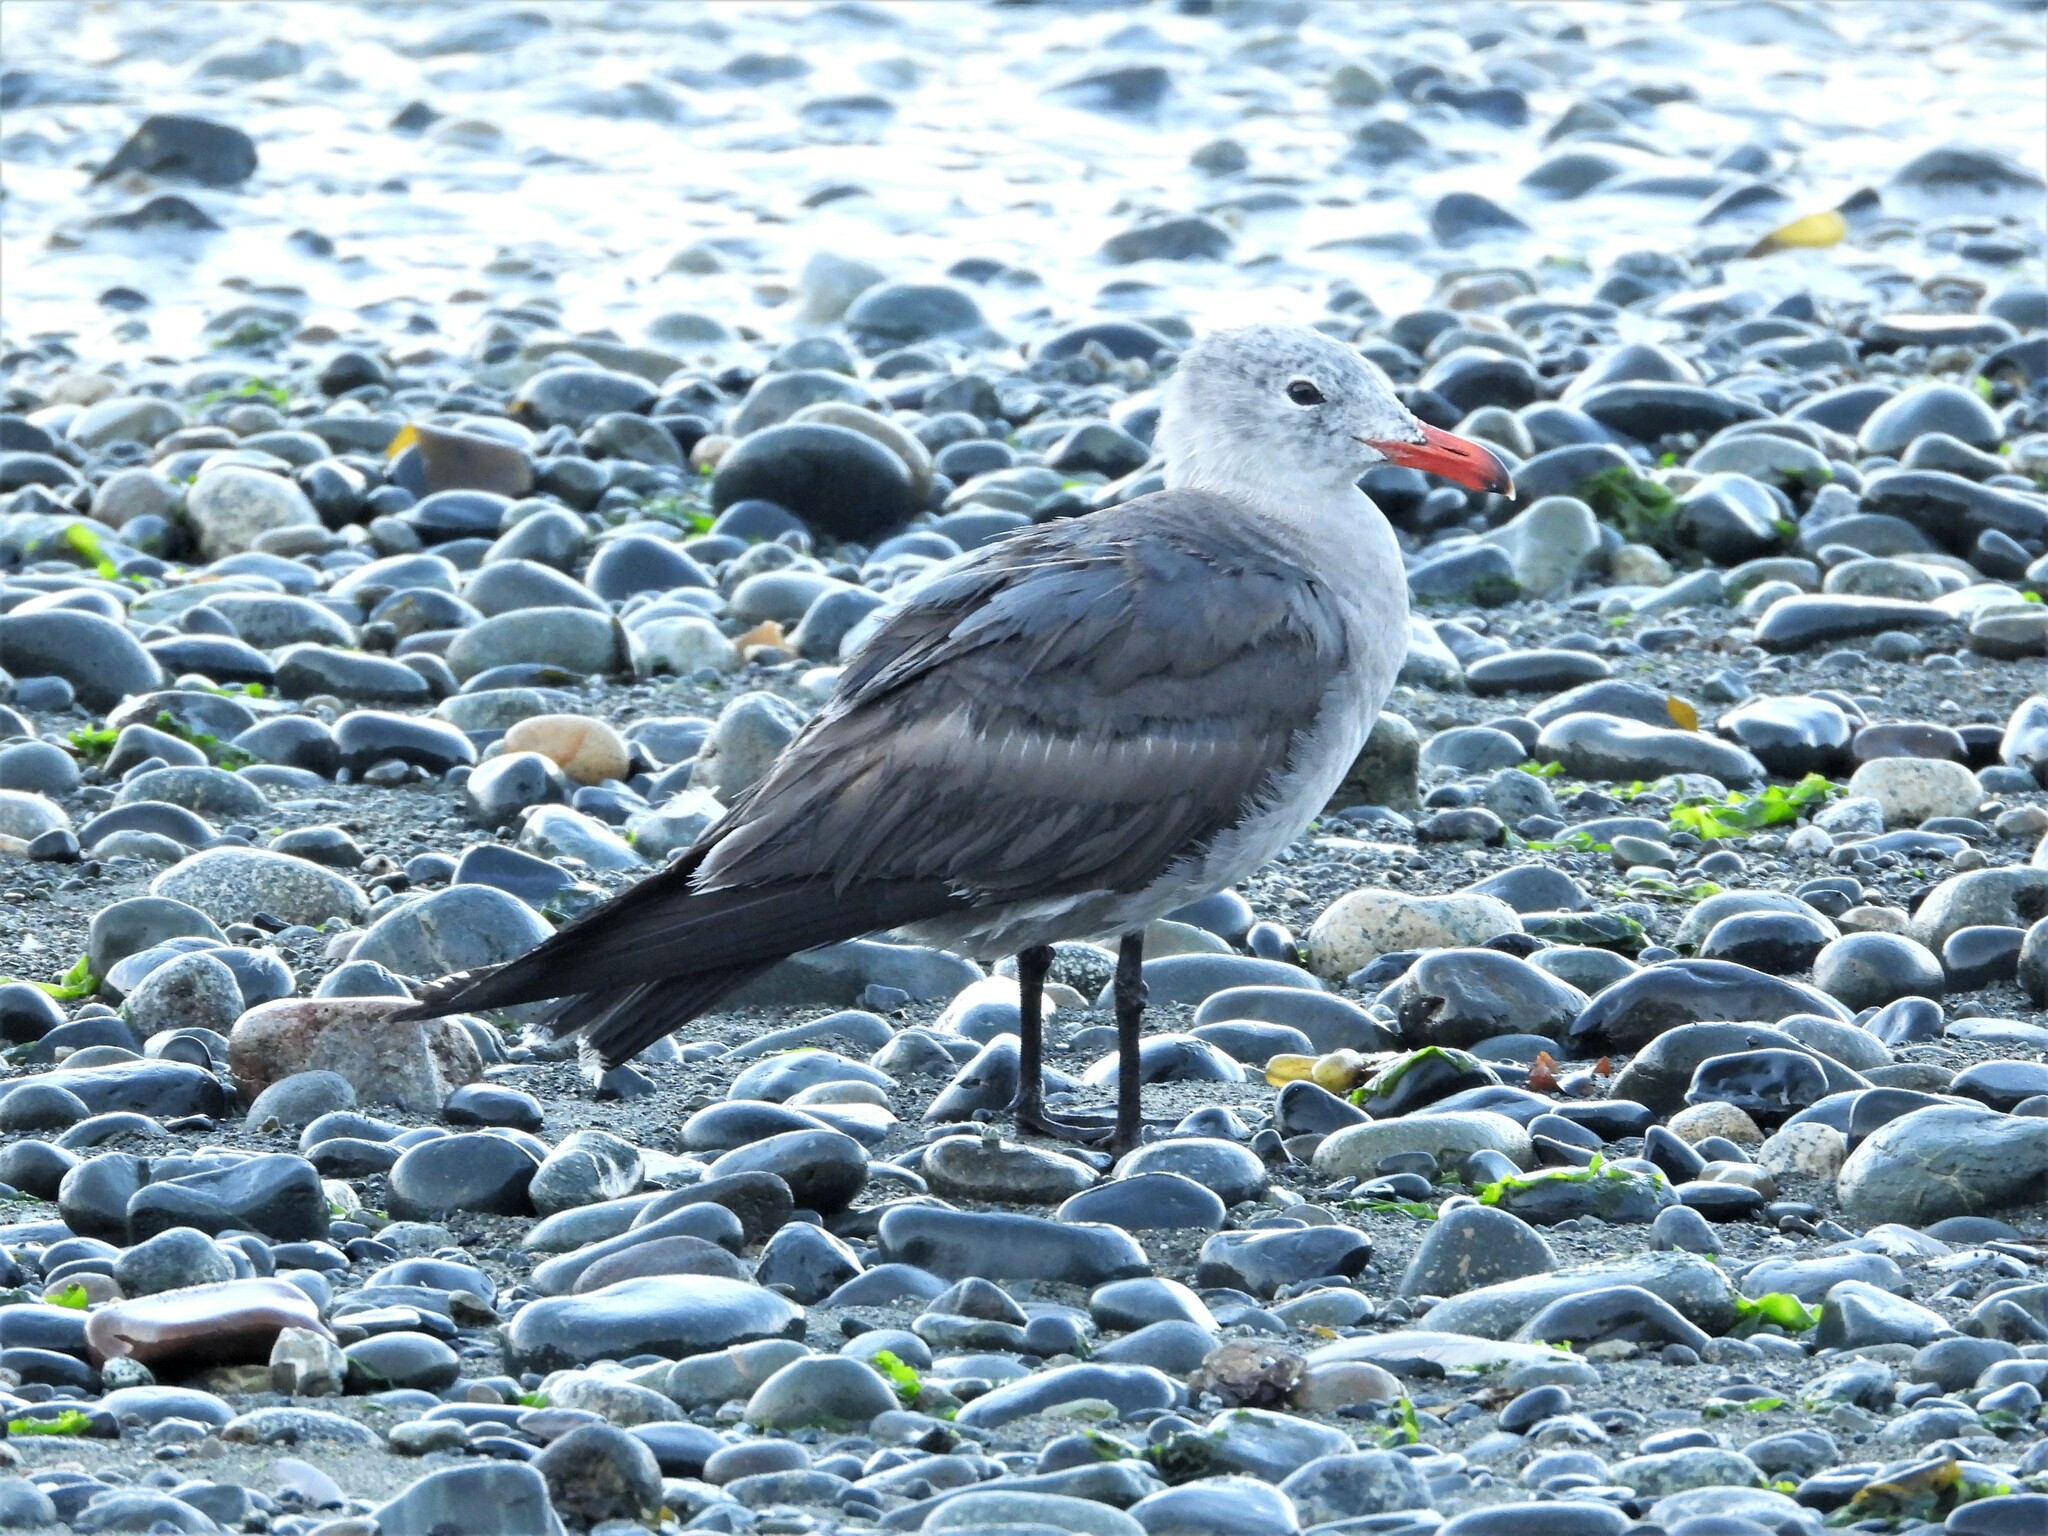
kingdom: Animalia
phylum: Chordata
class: Aves
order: Charadriiformes
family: Laridae
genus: Larus
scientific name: Larus heermanni
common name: Heermann's gull
